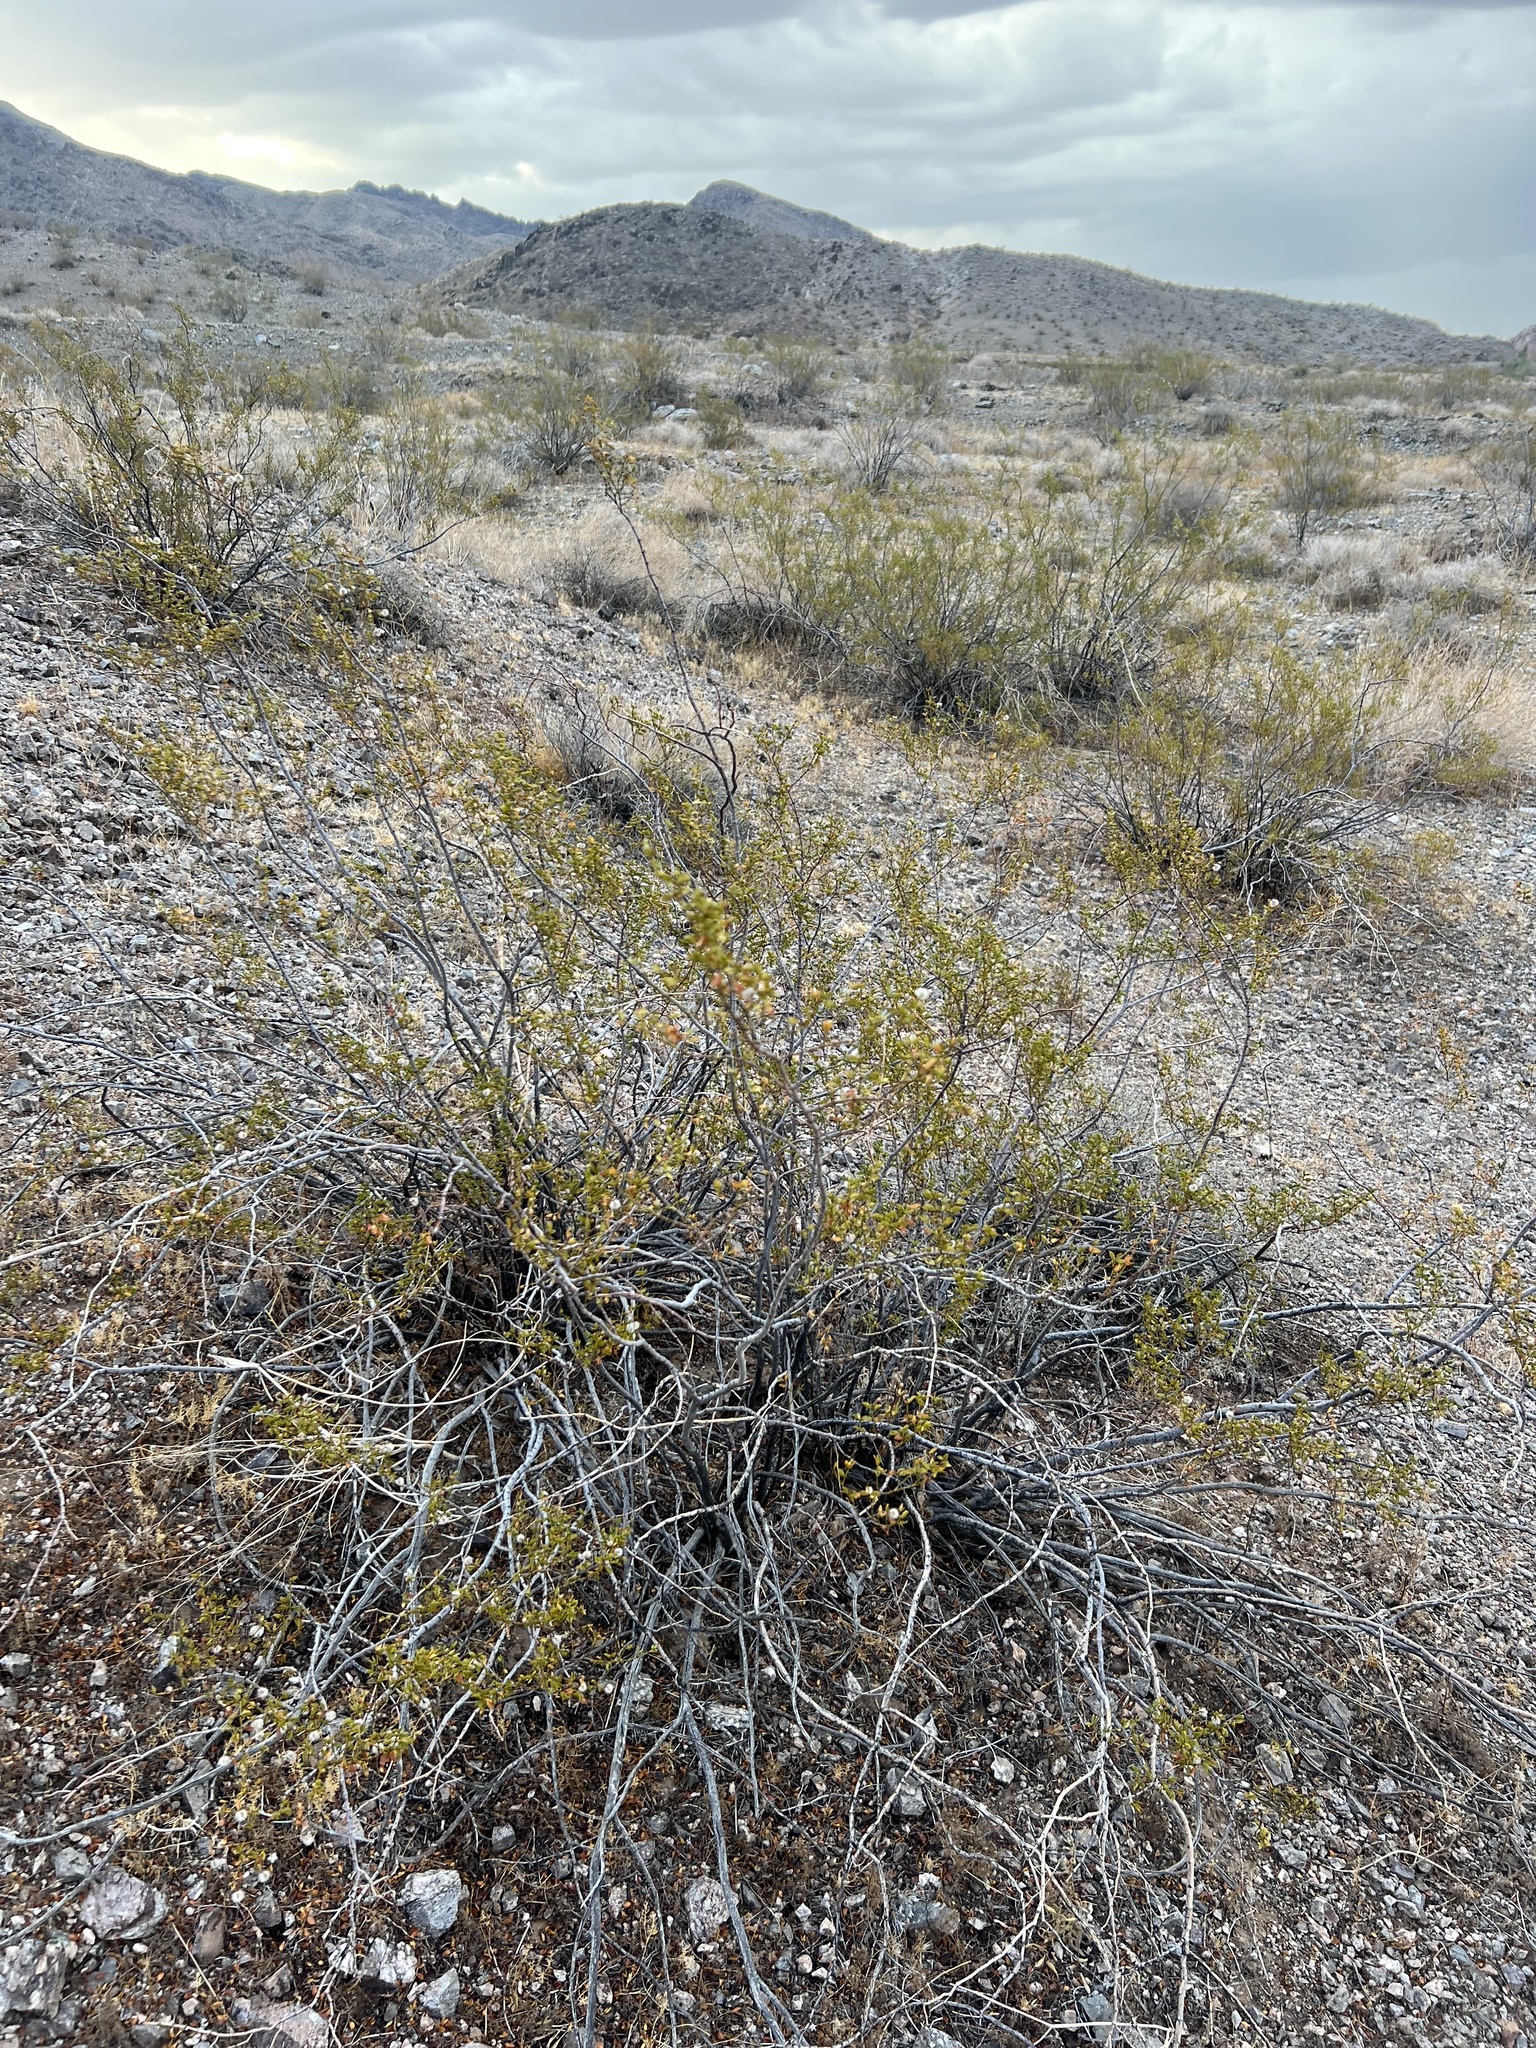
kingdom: Plantae
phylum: Tracheophyta
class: Magnoliopsida
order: Zygophyllales
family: Zygophyllaceae
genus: Larrea
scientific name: Larrea tridentata
